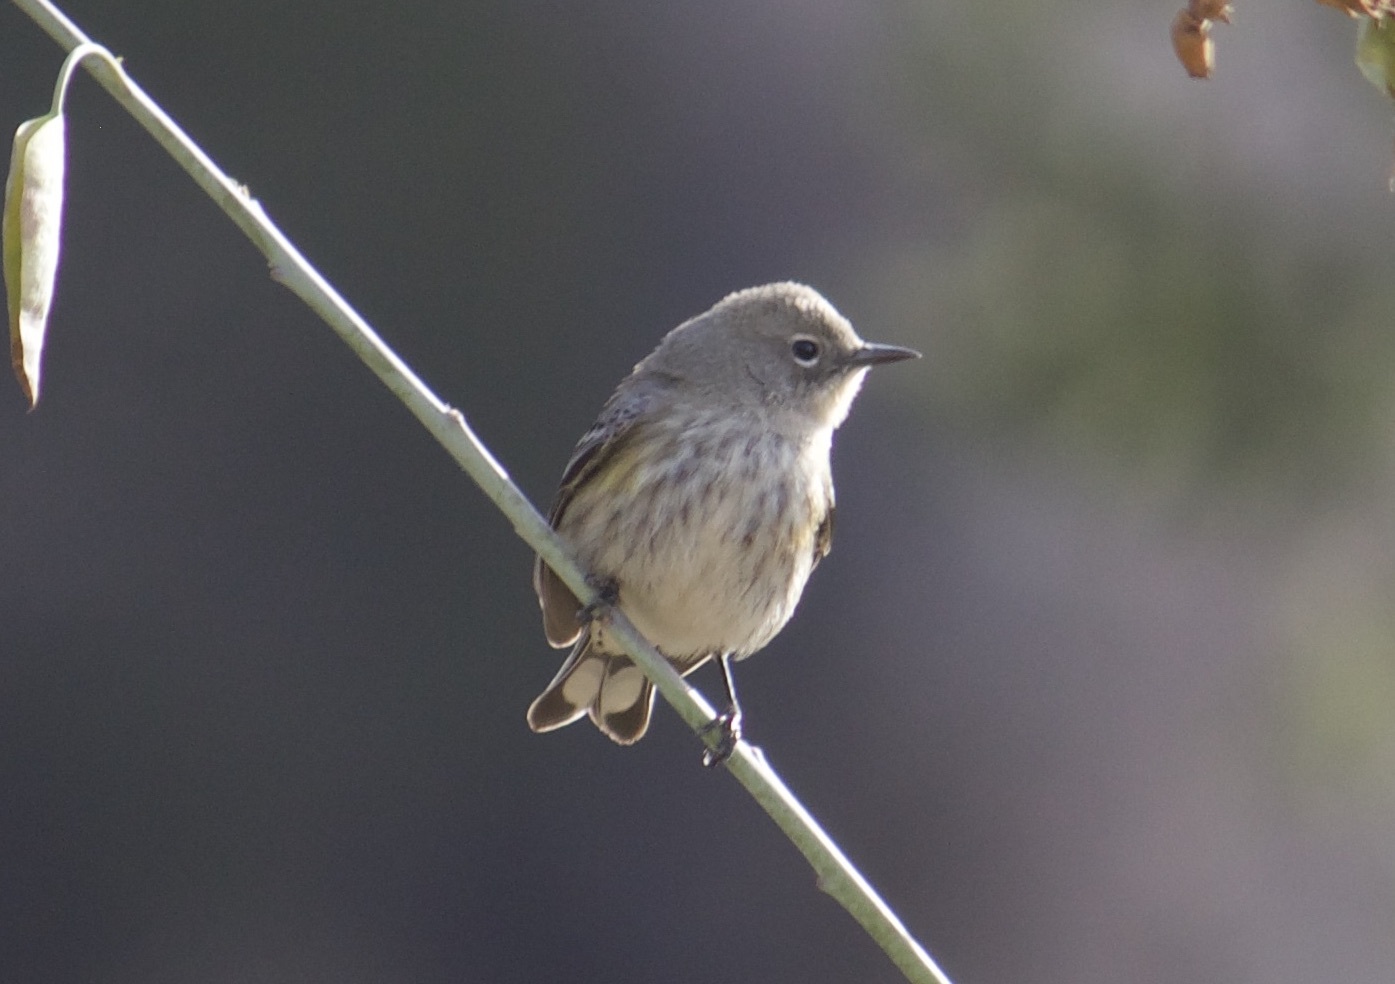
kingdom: Animalia
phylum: Chordata
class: Aves
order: Passeriformes
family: Parulidae
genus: Setophaga
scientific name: Setophaga coronata
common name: Myrtle warbler
